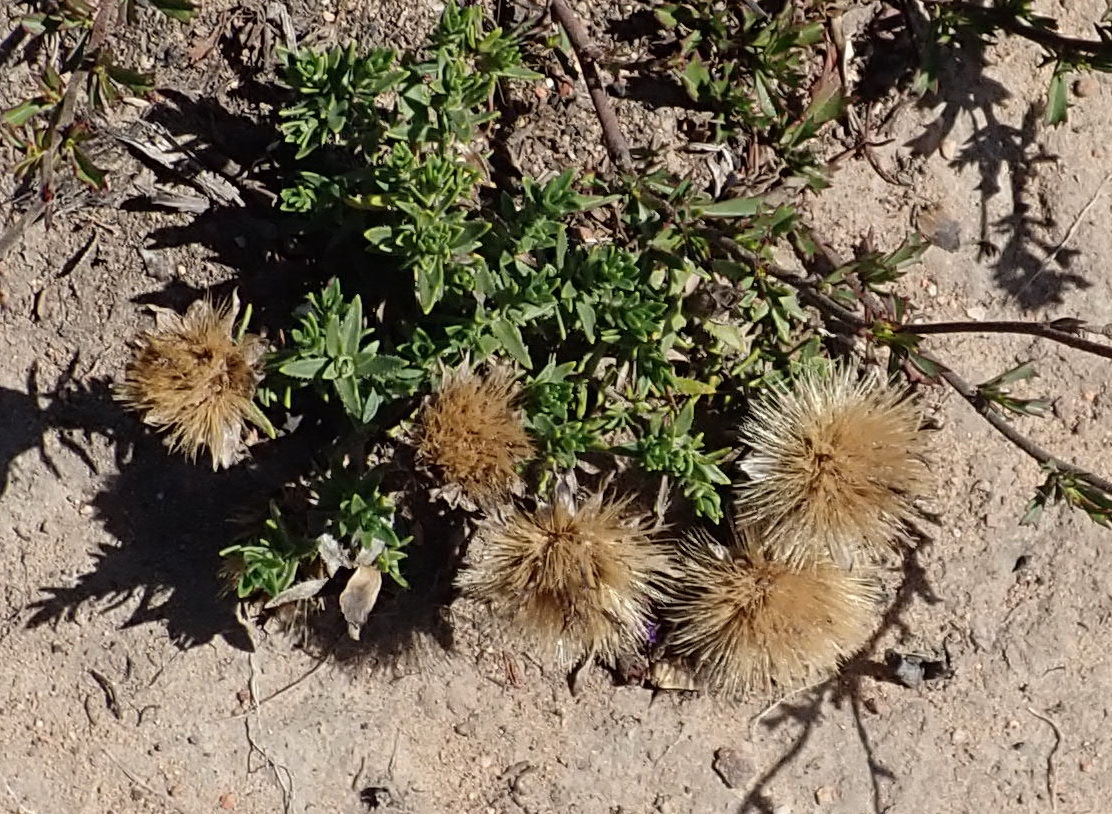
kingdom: Plantae
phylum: Tracheophyta
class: Magnoliopsida
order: Asterales
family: Asteraceae
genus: Pteronia
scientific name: Pteronia elongata
